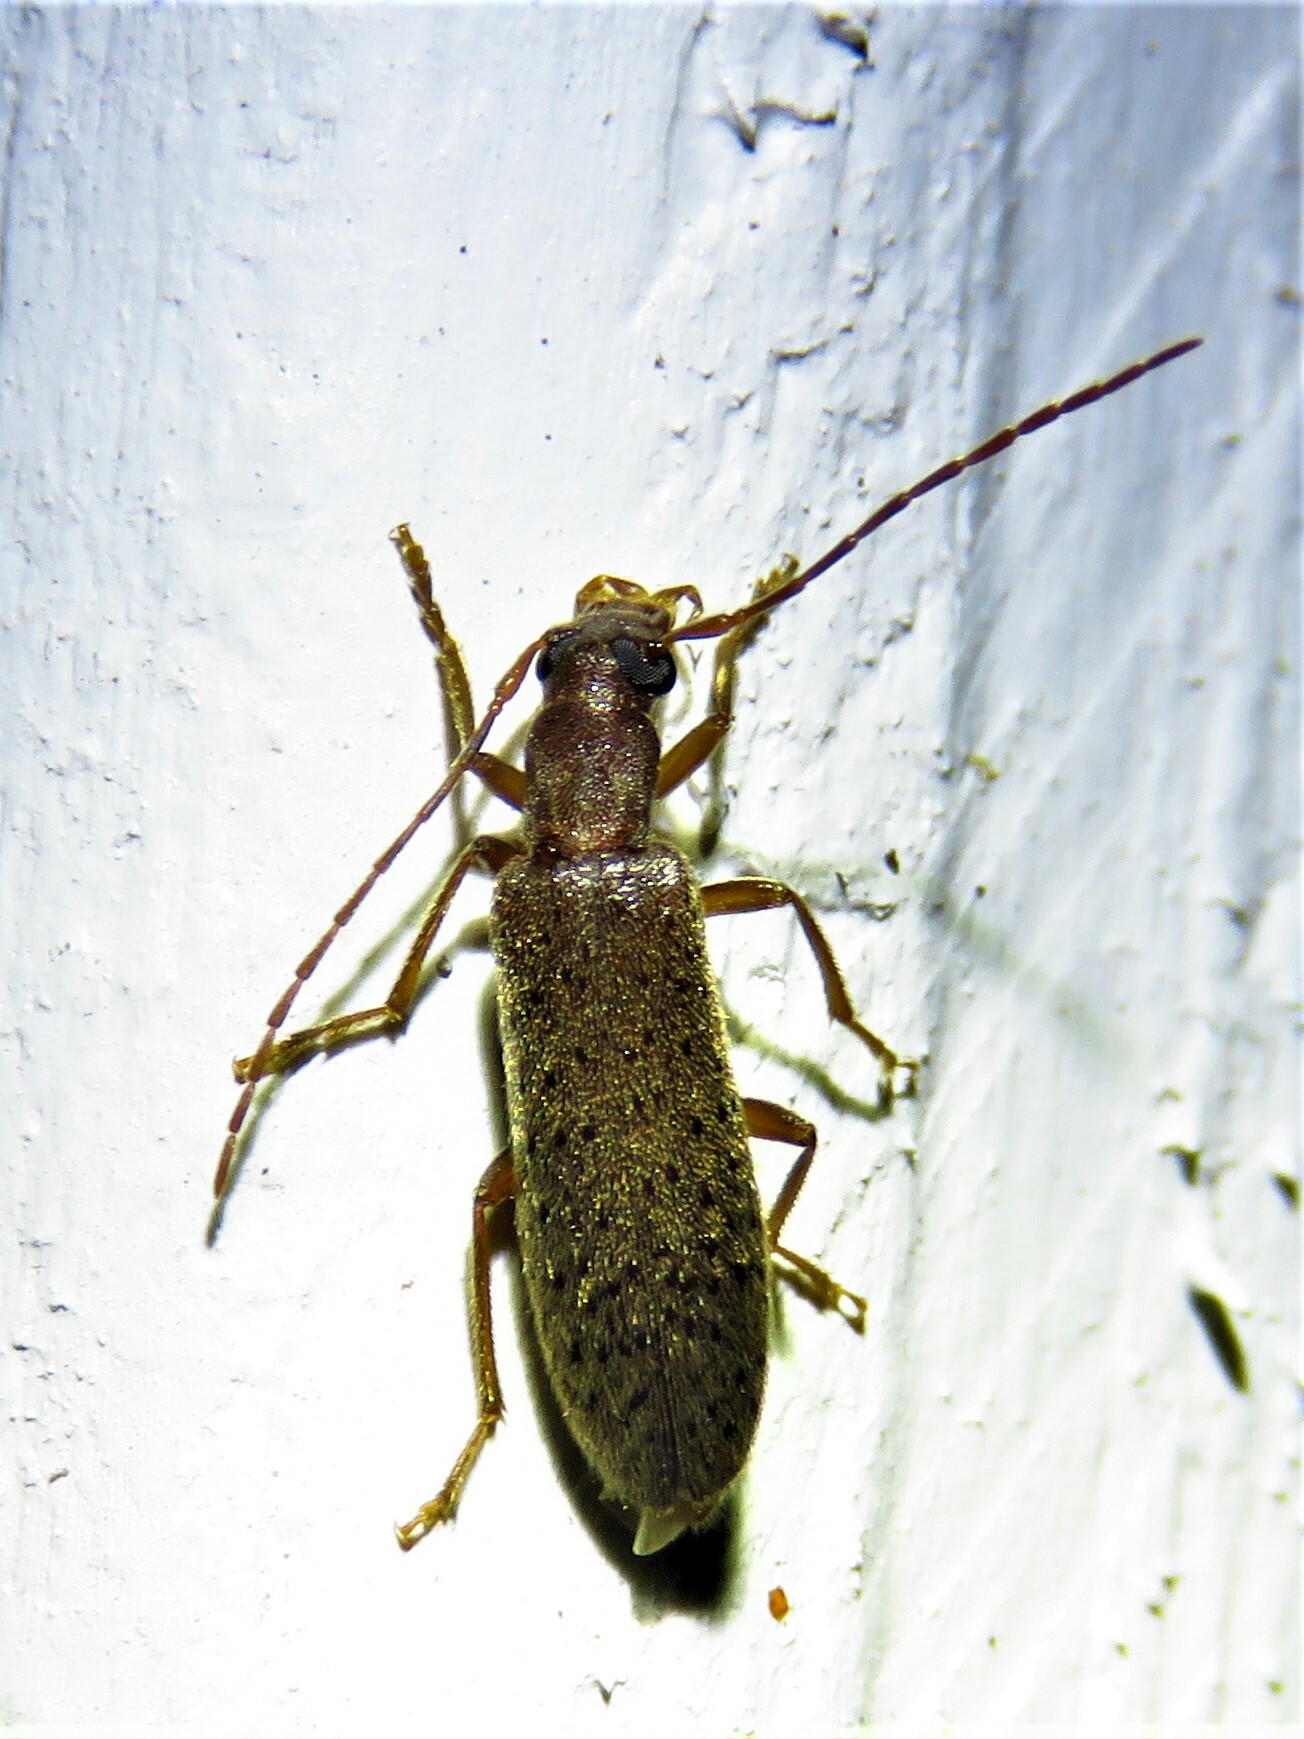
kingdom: Animalia
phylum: Arthropoda
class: Insecta
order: Coleoptera
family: Oedemeridae
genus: Sparedrus
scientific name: Sparedrus aspersus
